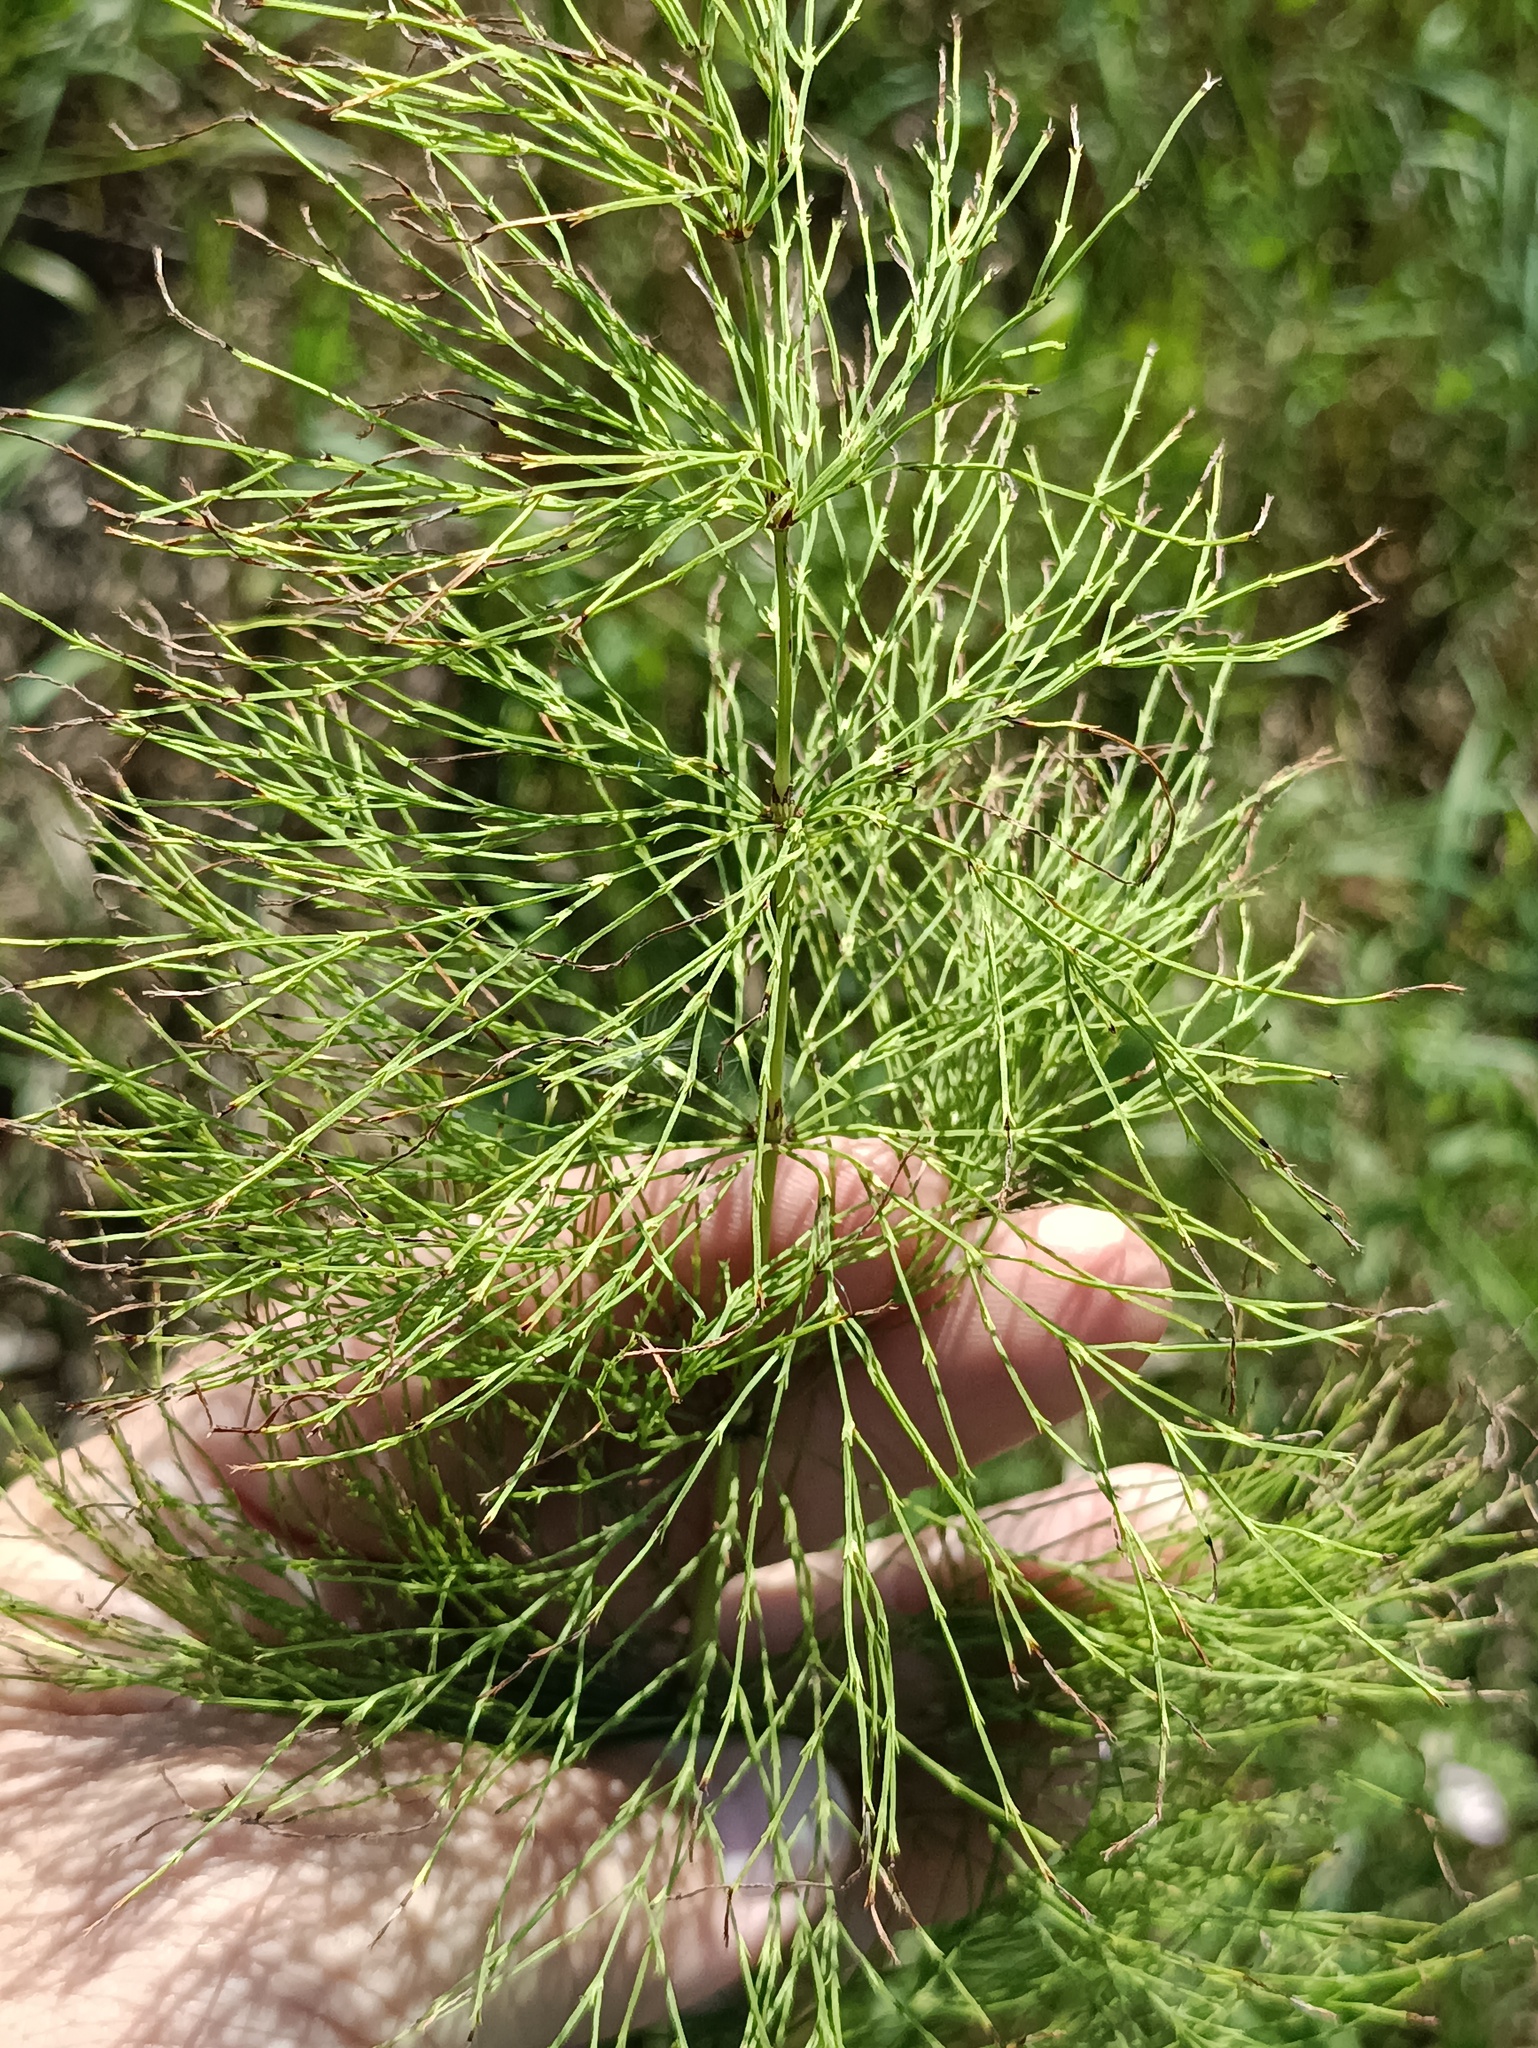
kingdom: Plantae
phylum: Tracheophyta
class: Polypodiopsida
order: Equisetales
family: Equisetaceae
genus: Equisetum
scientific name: Equisetum sylvaticum
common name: Wood horsetail
